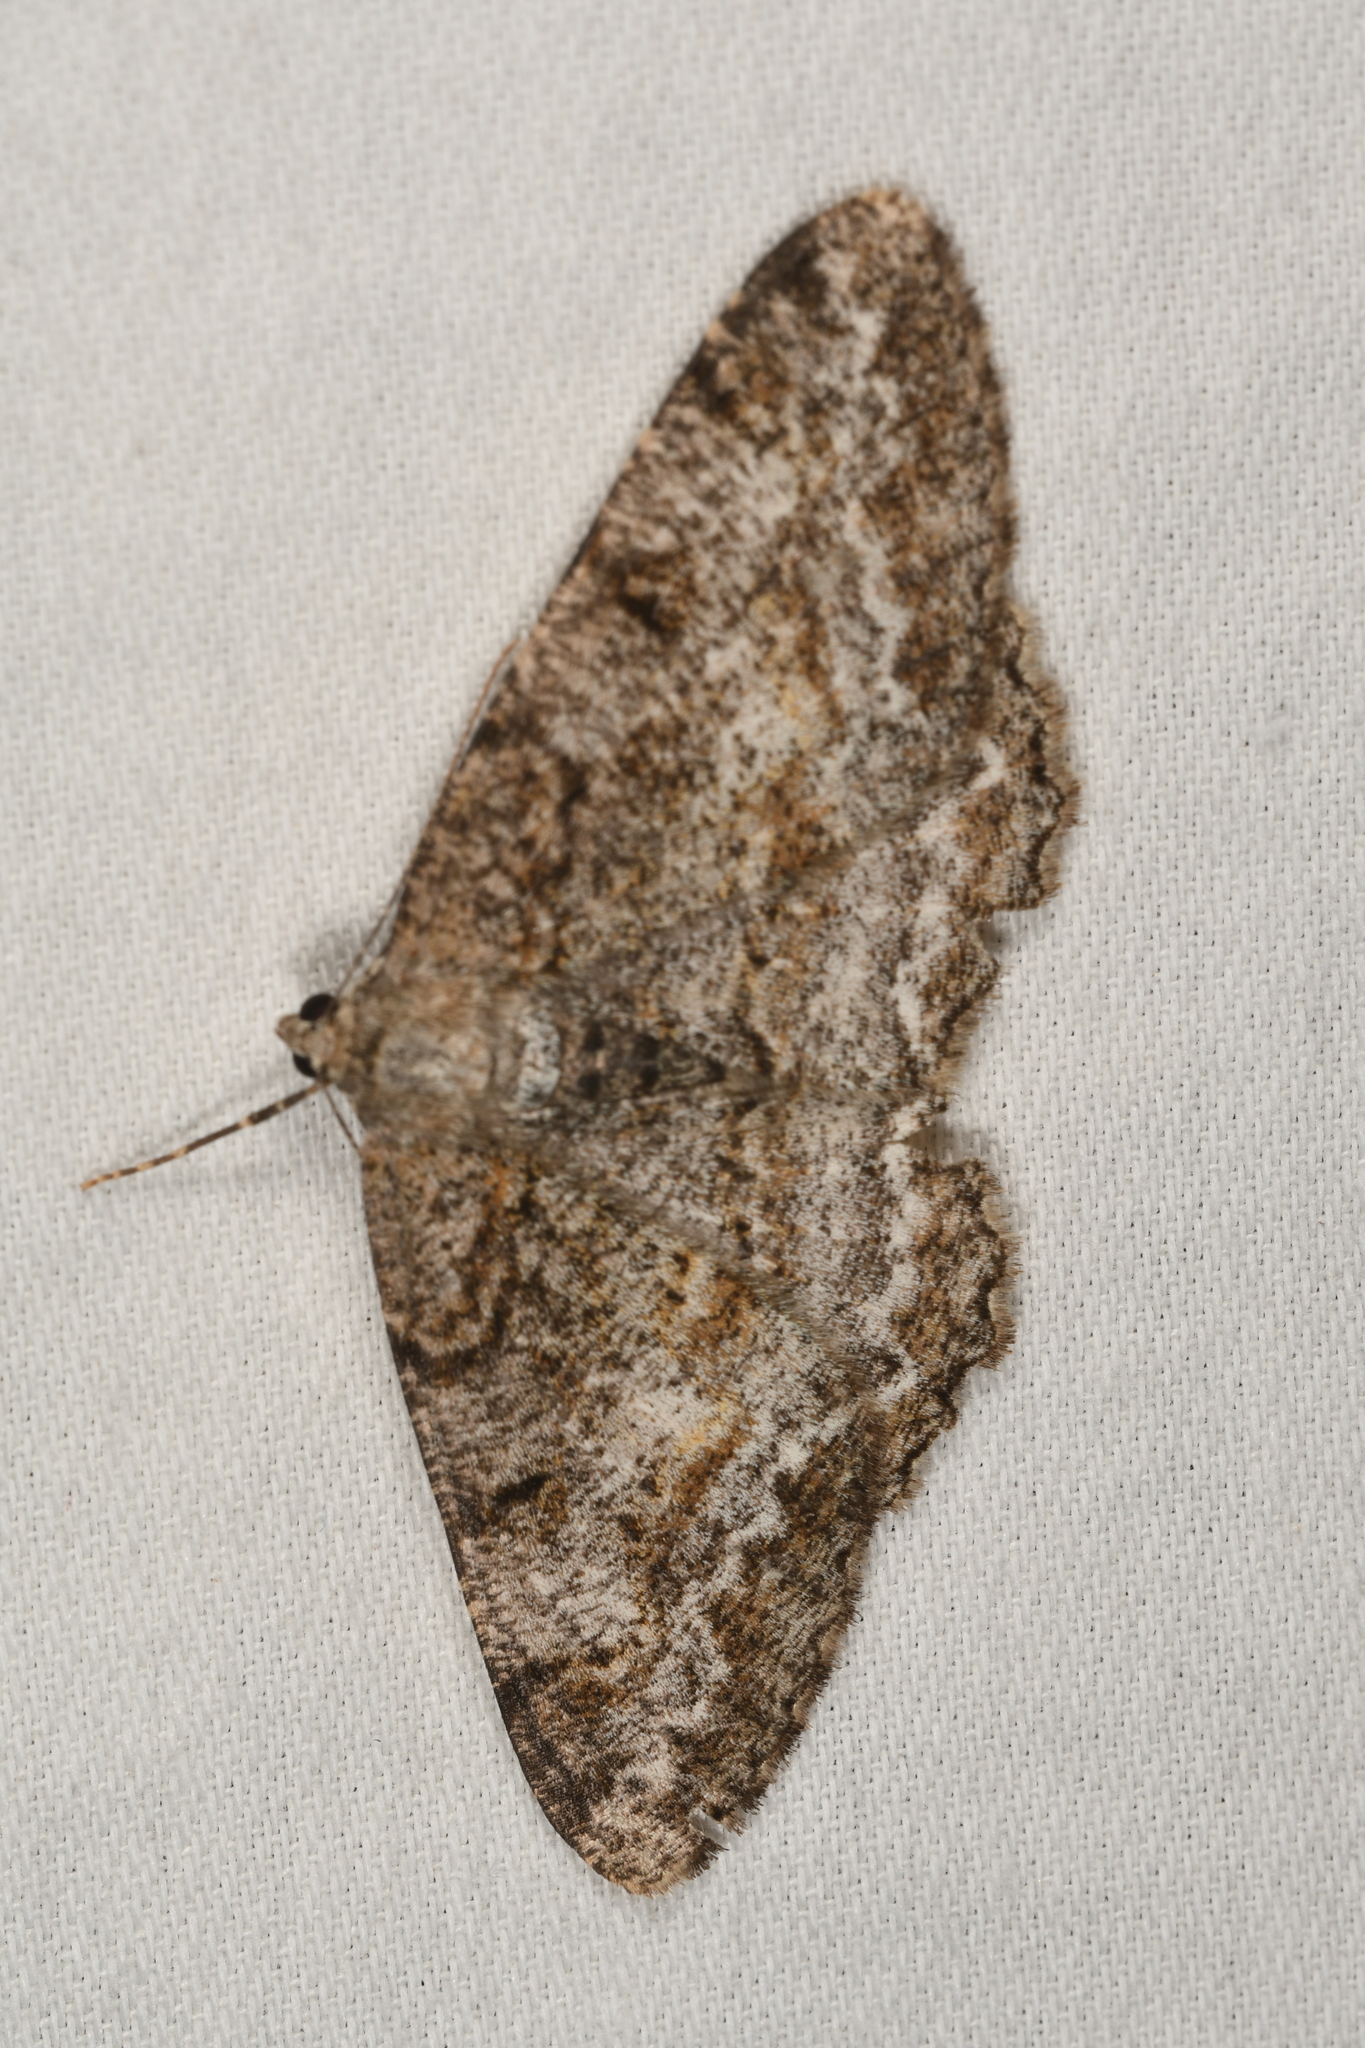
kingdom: Animalia
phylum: Arthropoda
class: Insecta
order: Lepidoptera
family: Geometridae
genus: Alcis
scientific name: Alcis repandata
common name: Mottled beauty
